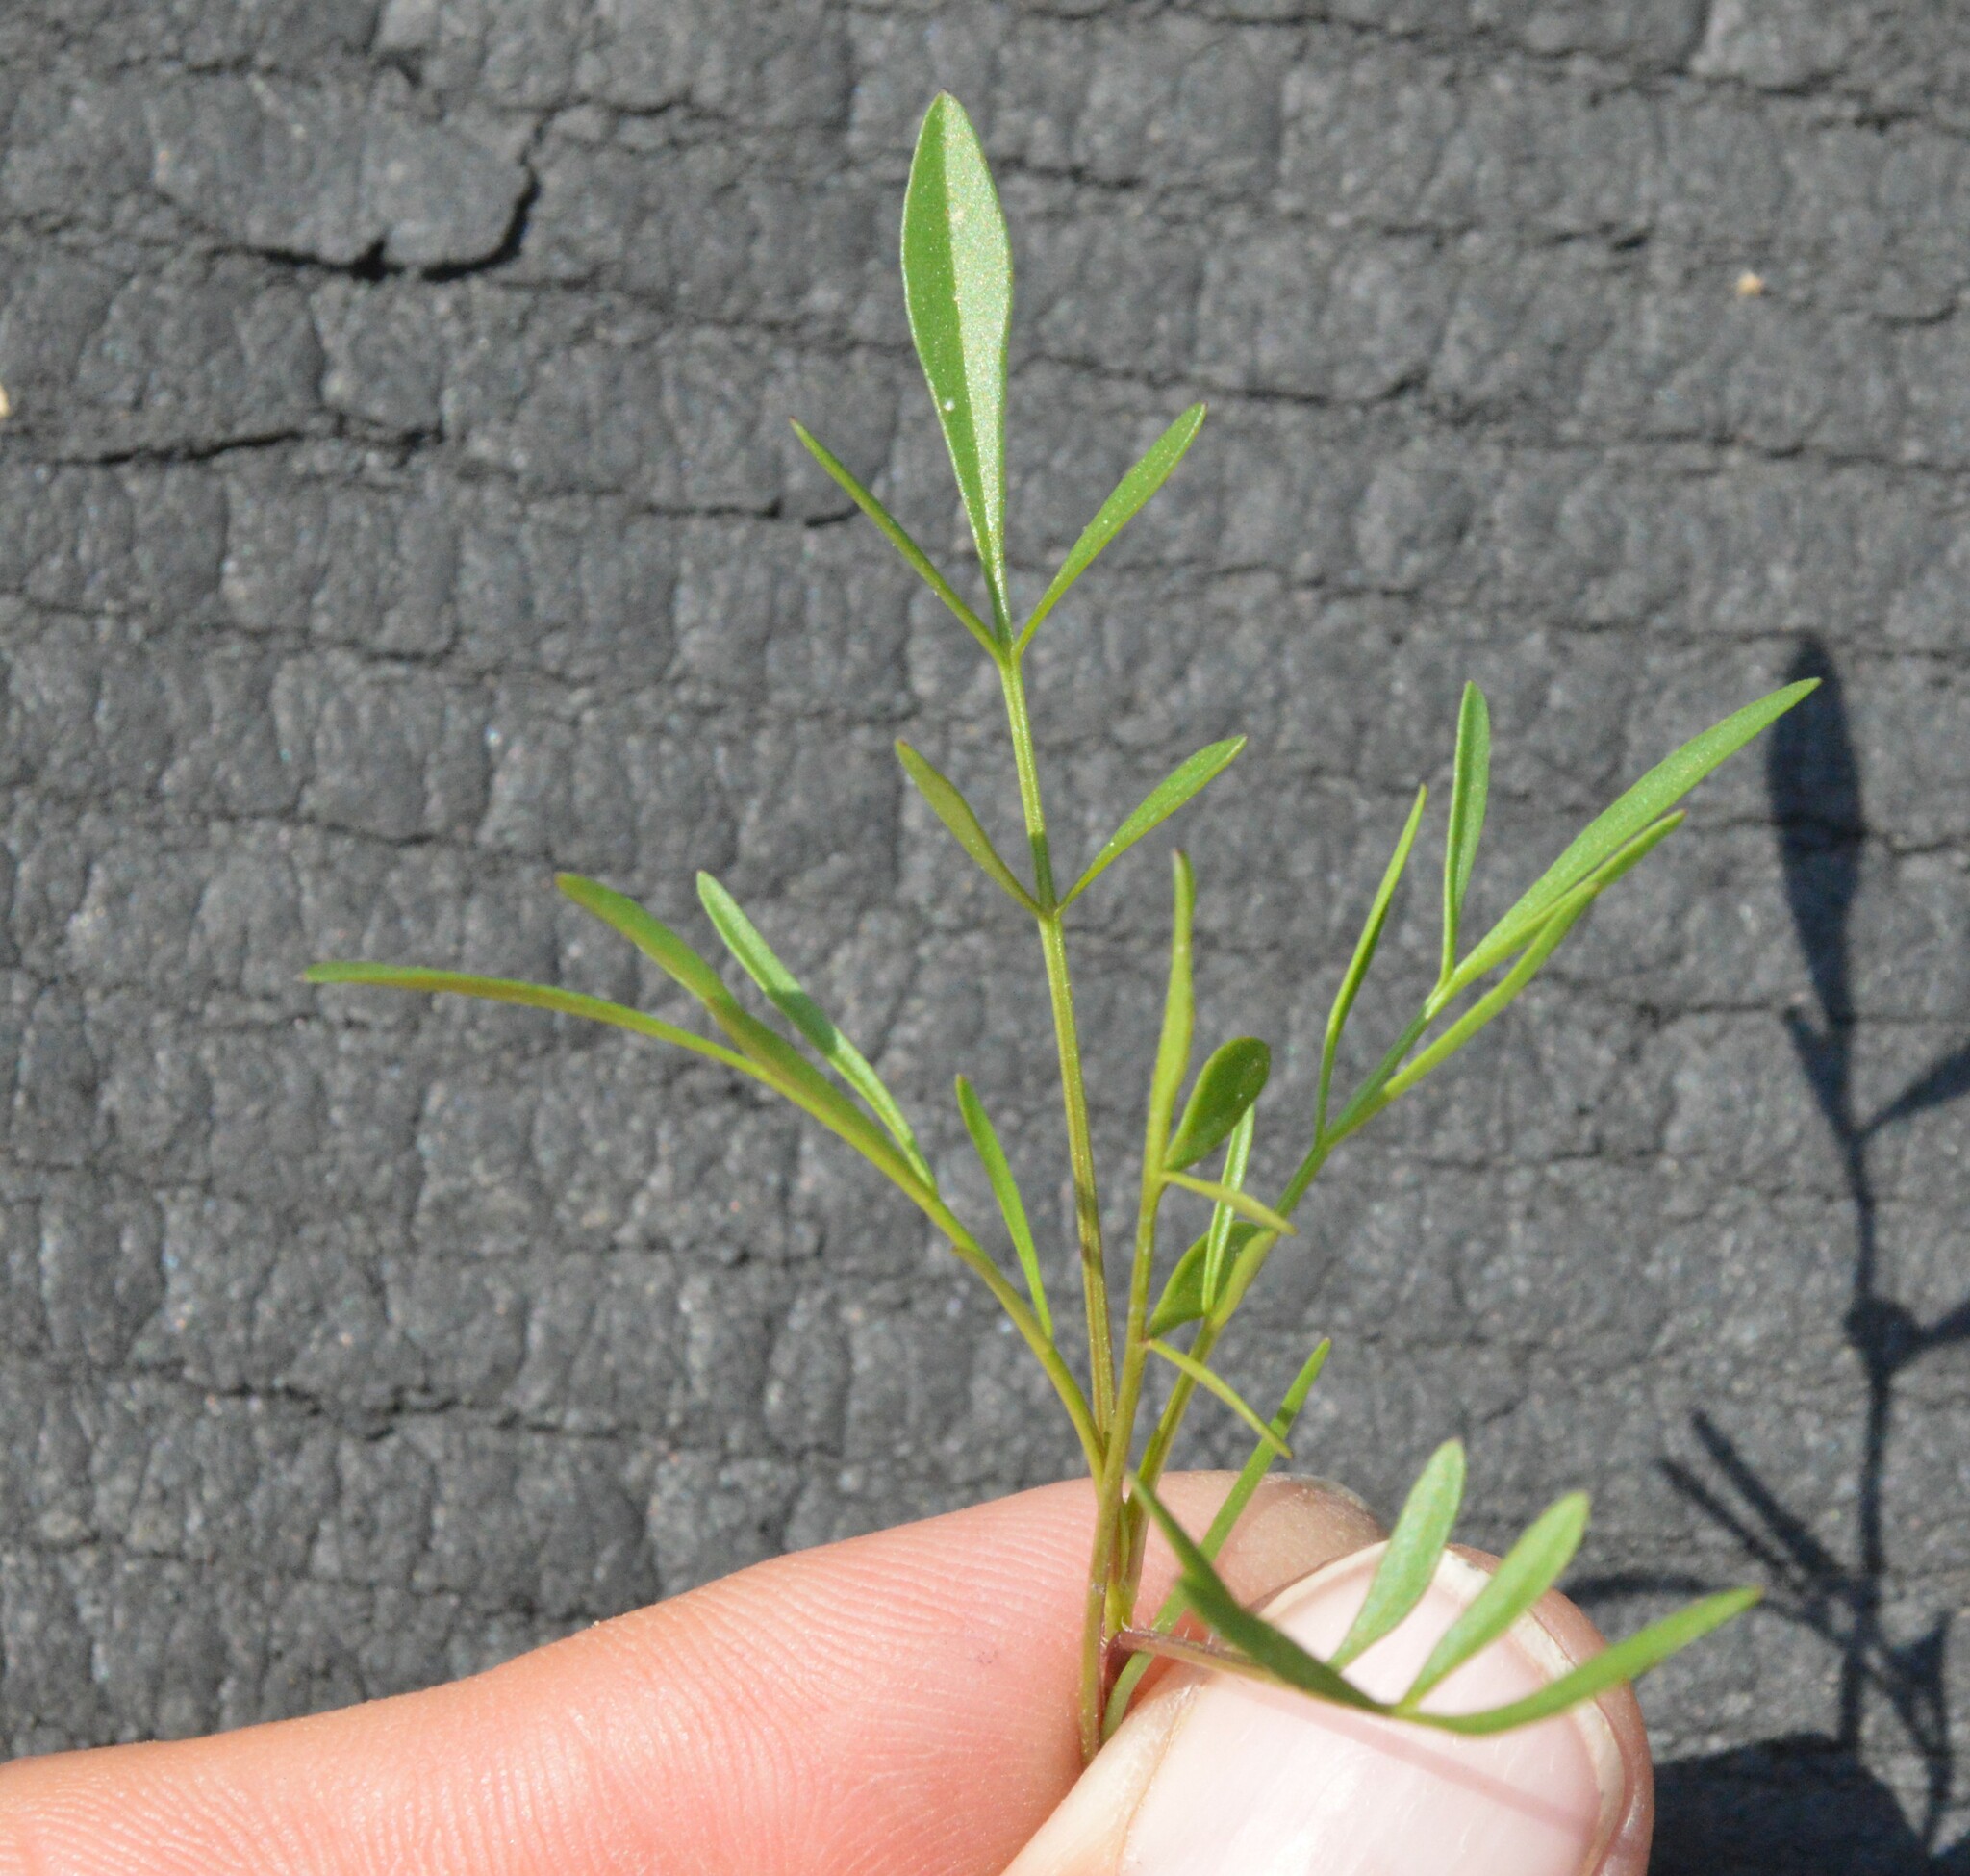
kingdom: Plantae
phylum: Tracheophyta
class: Magnoliopsida
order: Asterales
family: Asteraceae
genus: Coreopsis
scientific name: Coreopsis tinctoria
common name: Garden tickseed
